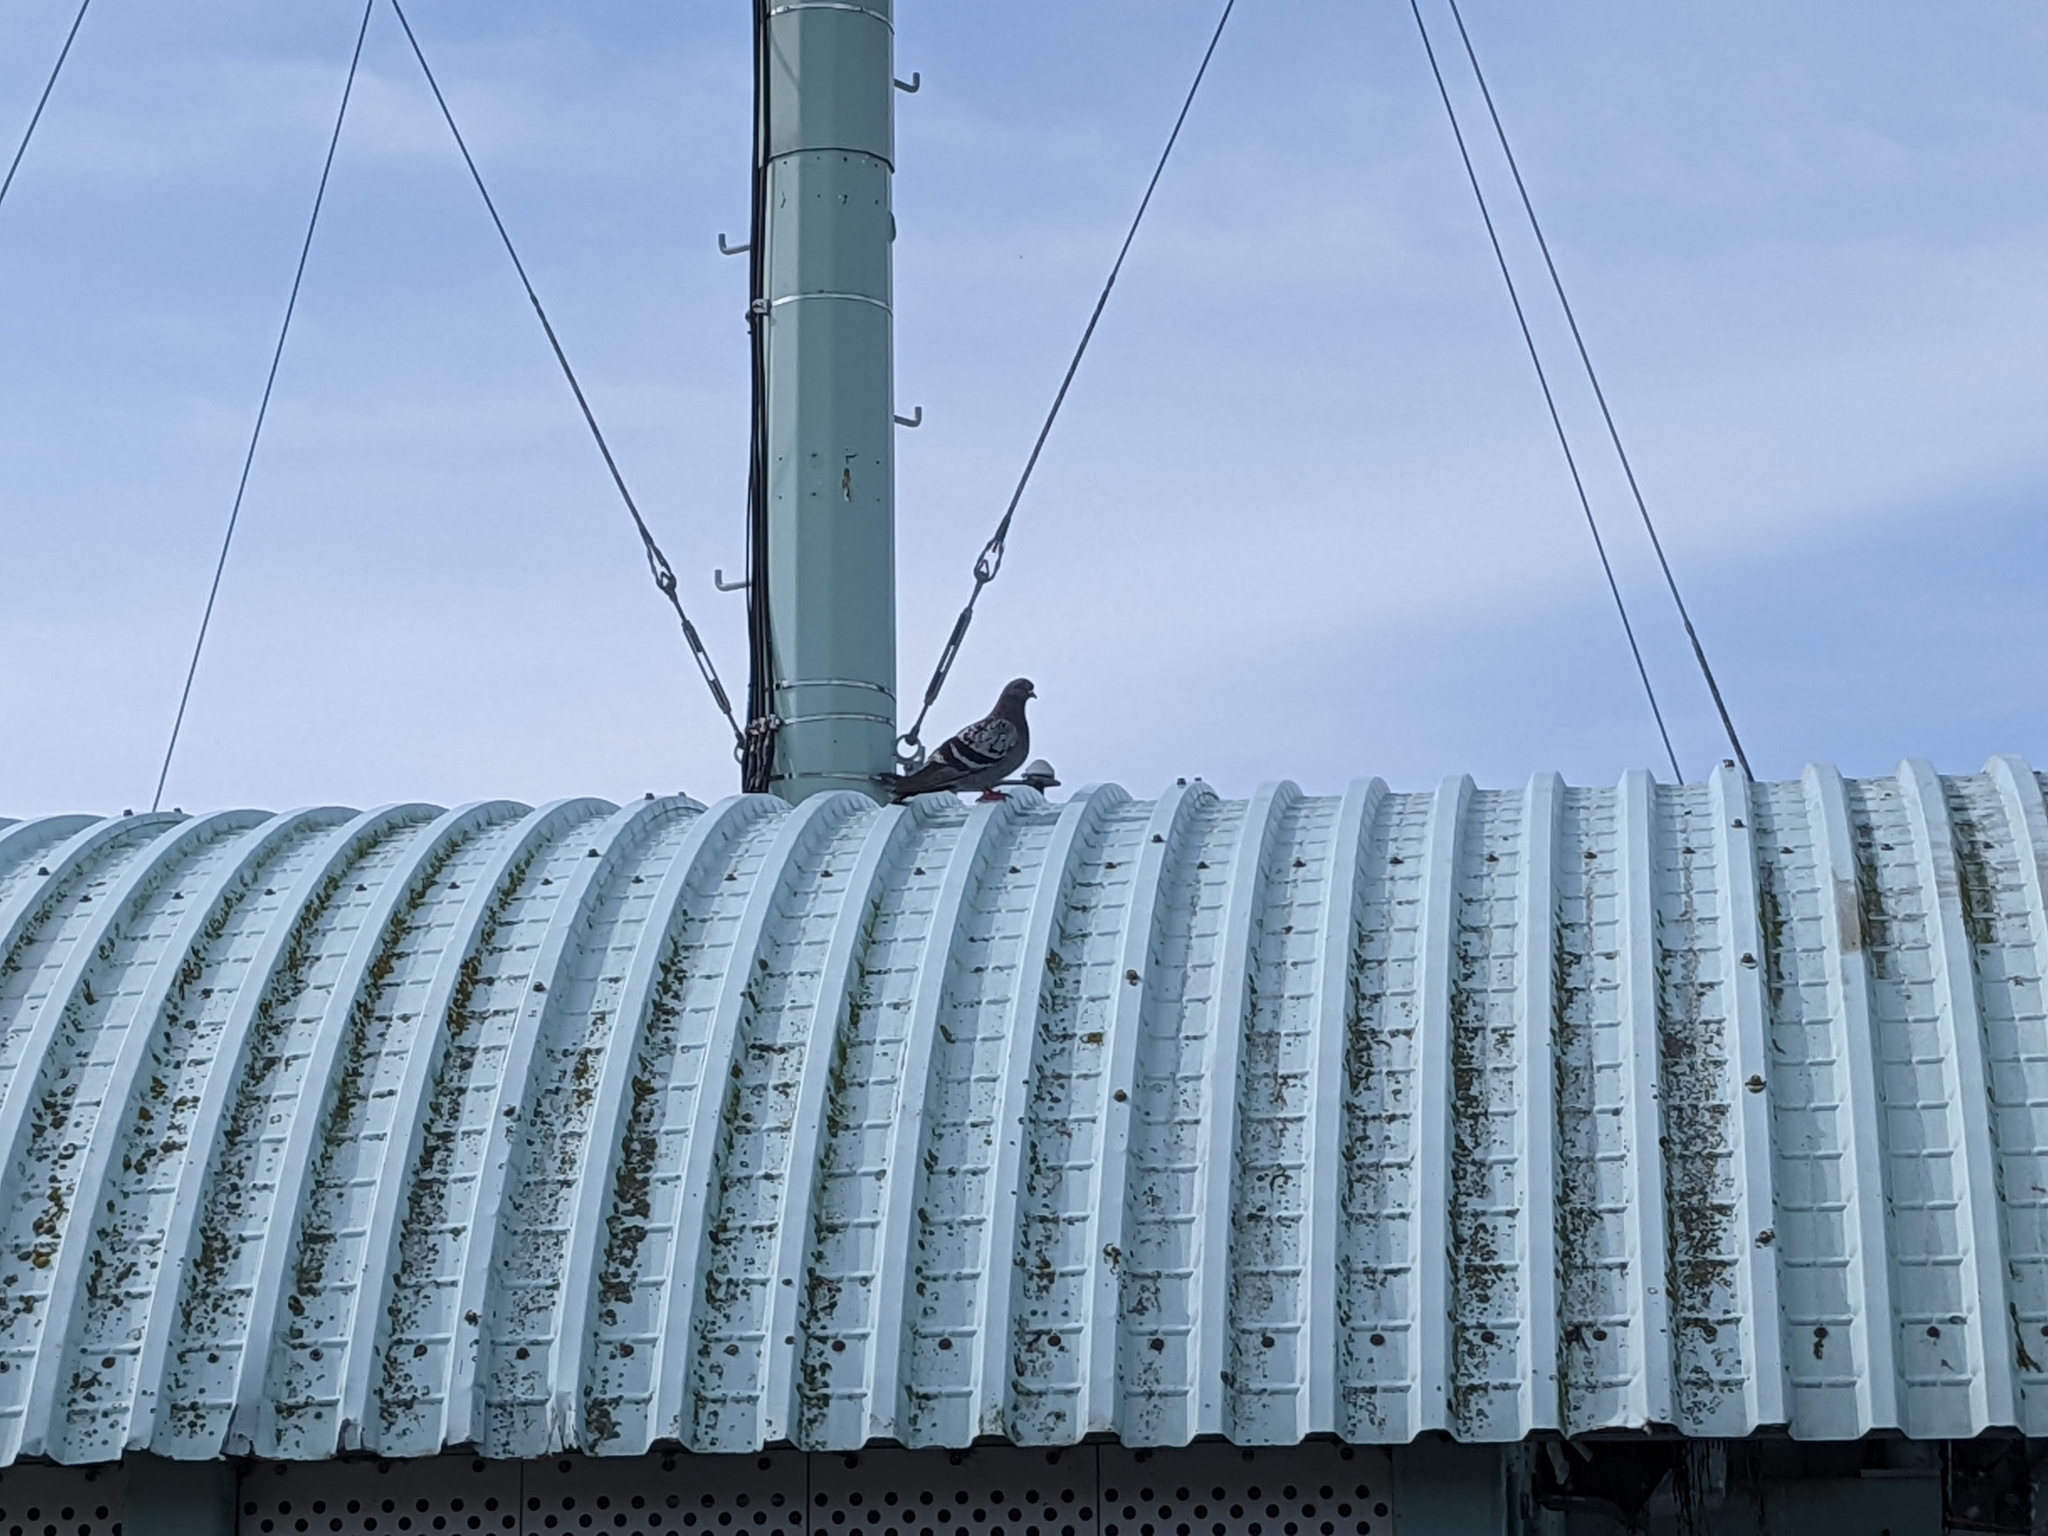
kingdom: Animalia
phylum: Chordata
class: Aves
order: Columbiformes
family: Columbidae
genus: Columba
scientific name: Columba livia
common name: Rock pigeon
